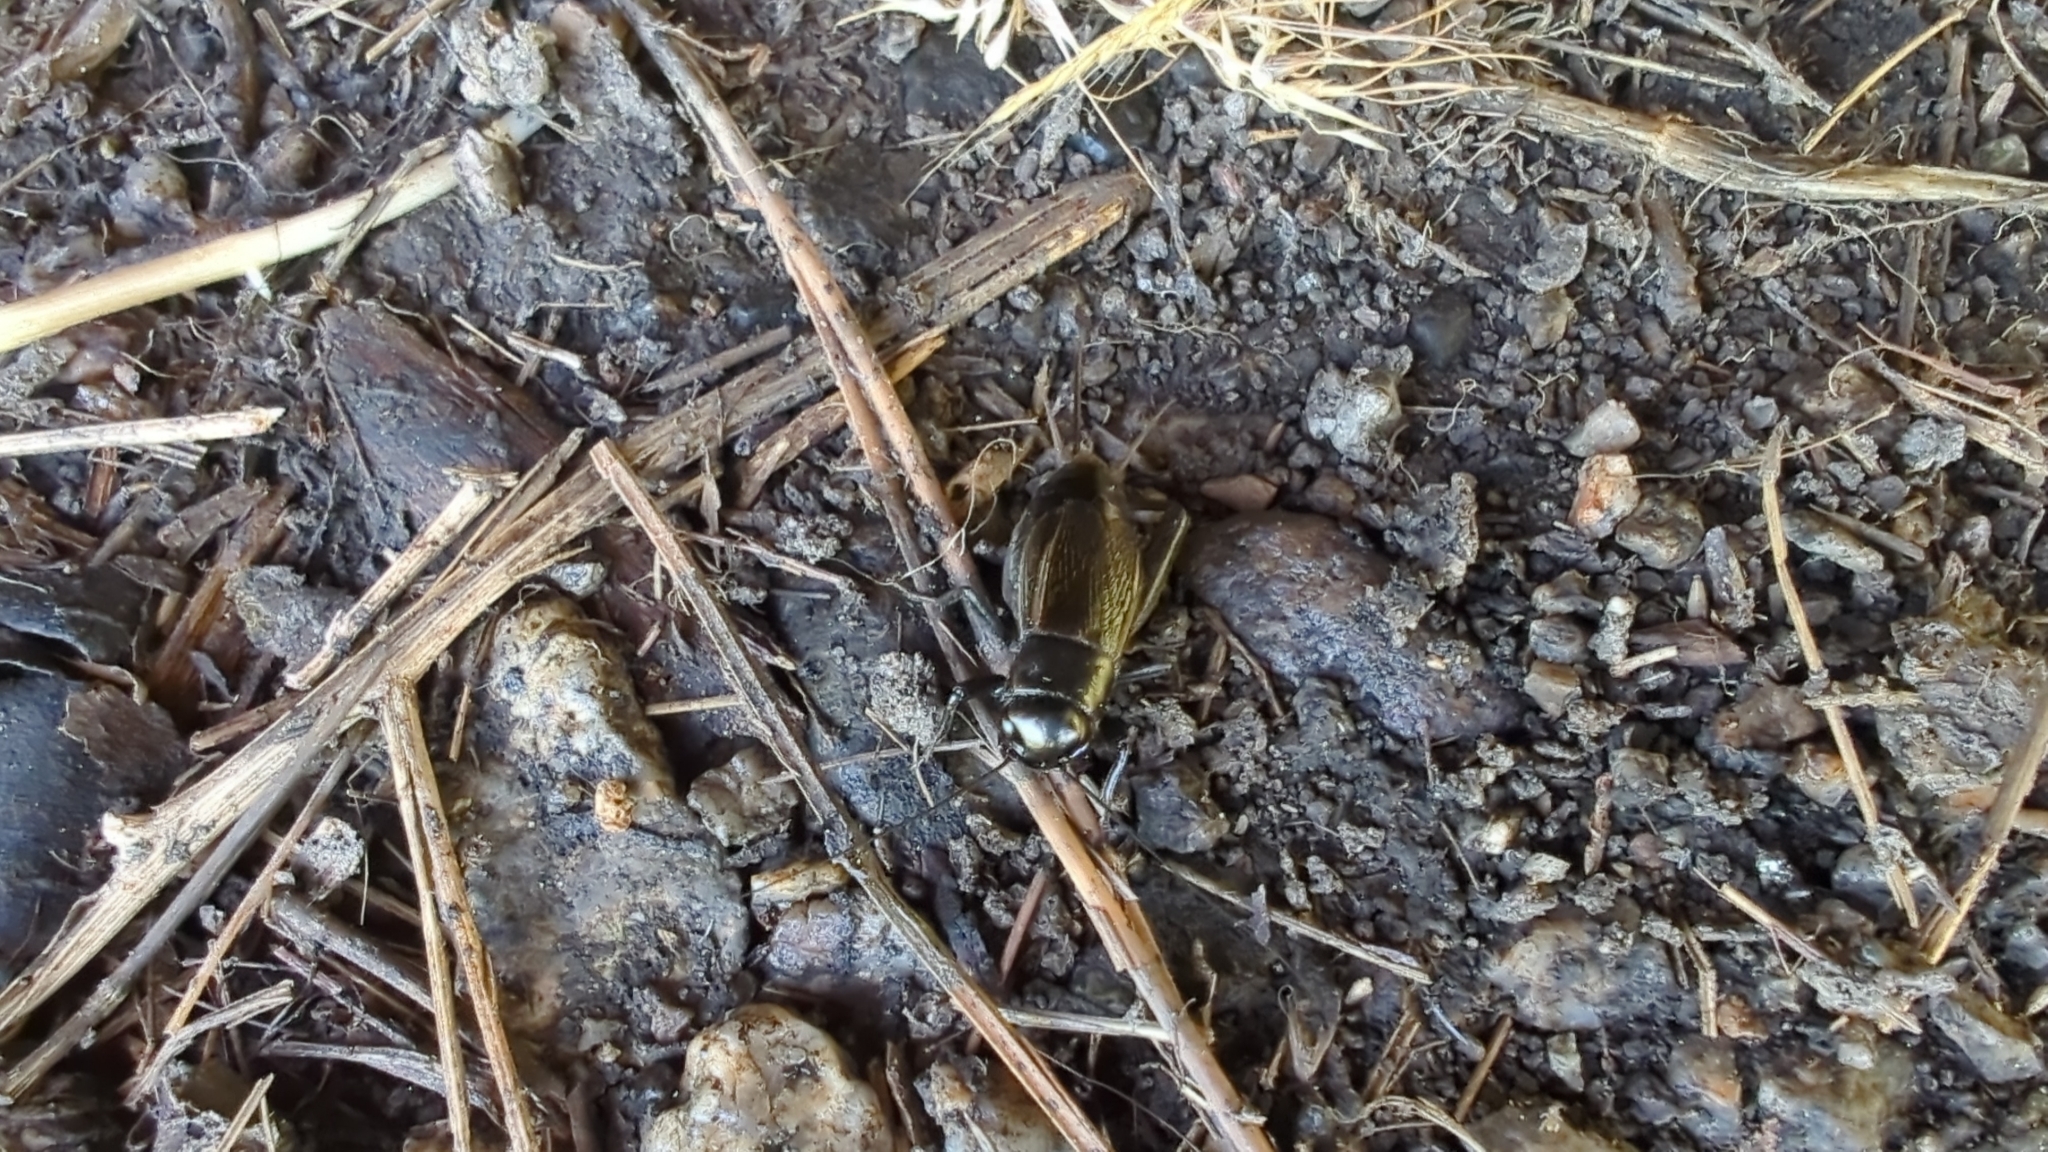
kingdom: Animalia
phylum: Arthropoda
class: Insecta
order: Orthoptera
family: Gryllidae
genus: Gryllus
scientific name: Gryllus veletis
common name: Spring field cricket
